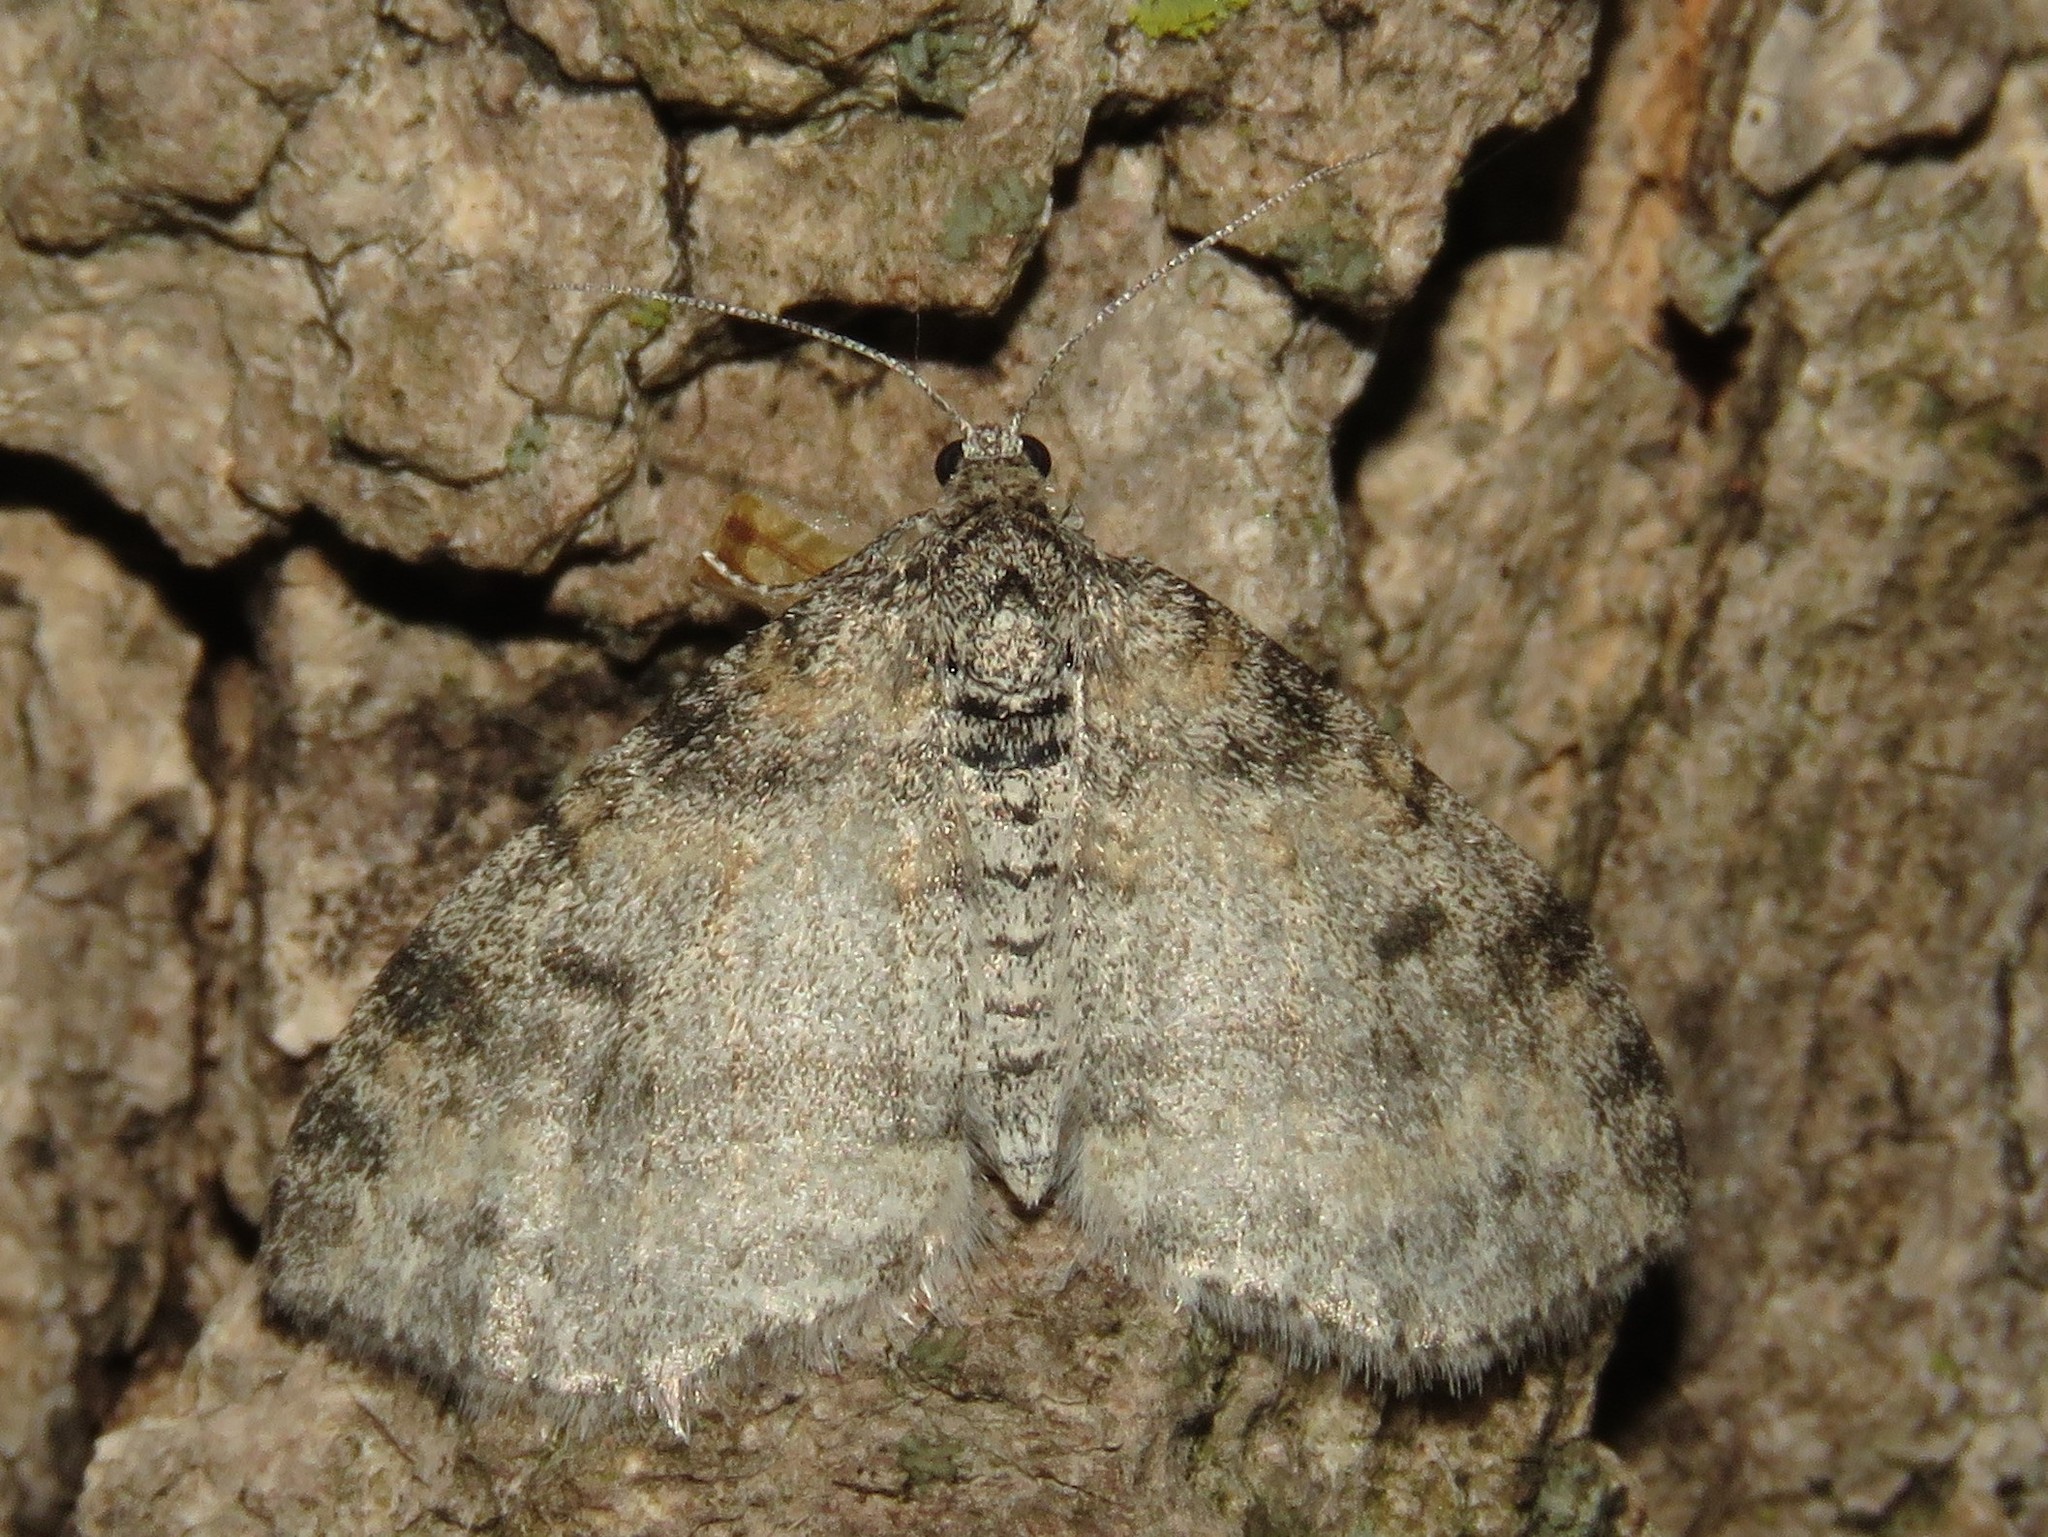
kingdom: Animalia
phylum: Arthropoda
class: Insecta
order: Lepidoptera
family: Geometridae
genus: Lobophora
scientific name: Lobophora nivigerata
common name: Powdered bigwing
